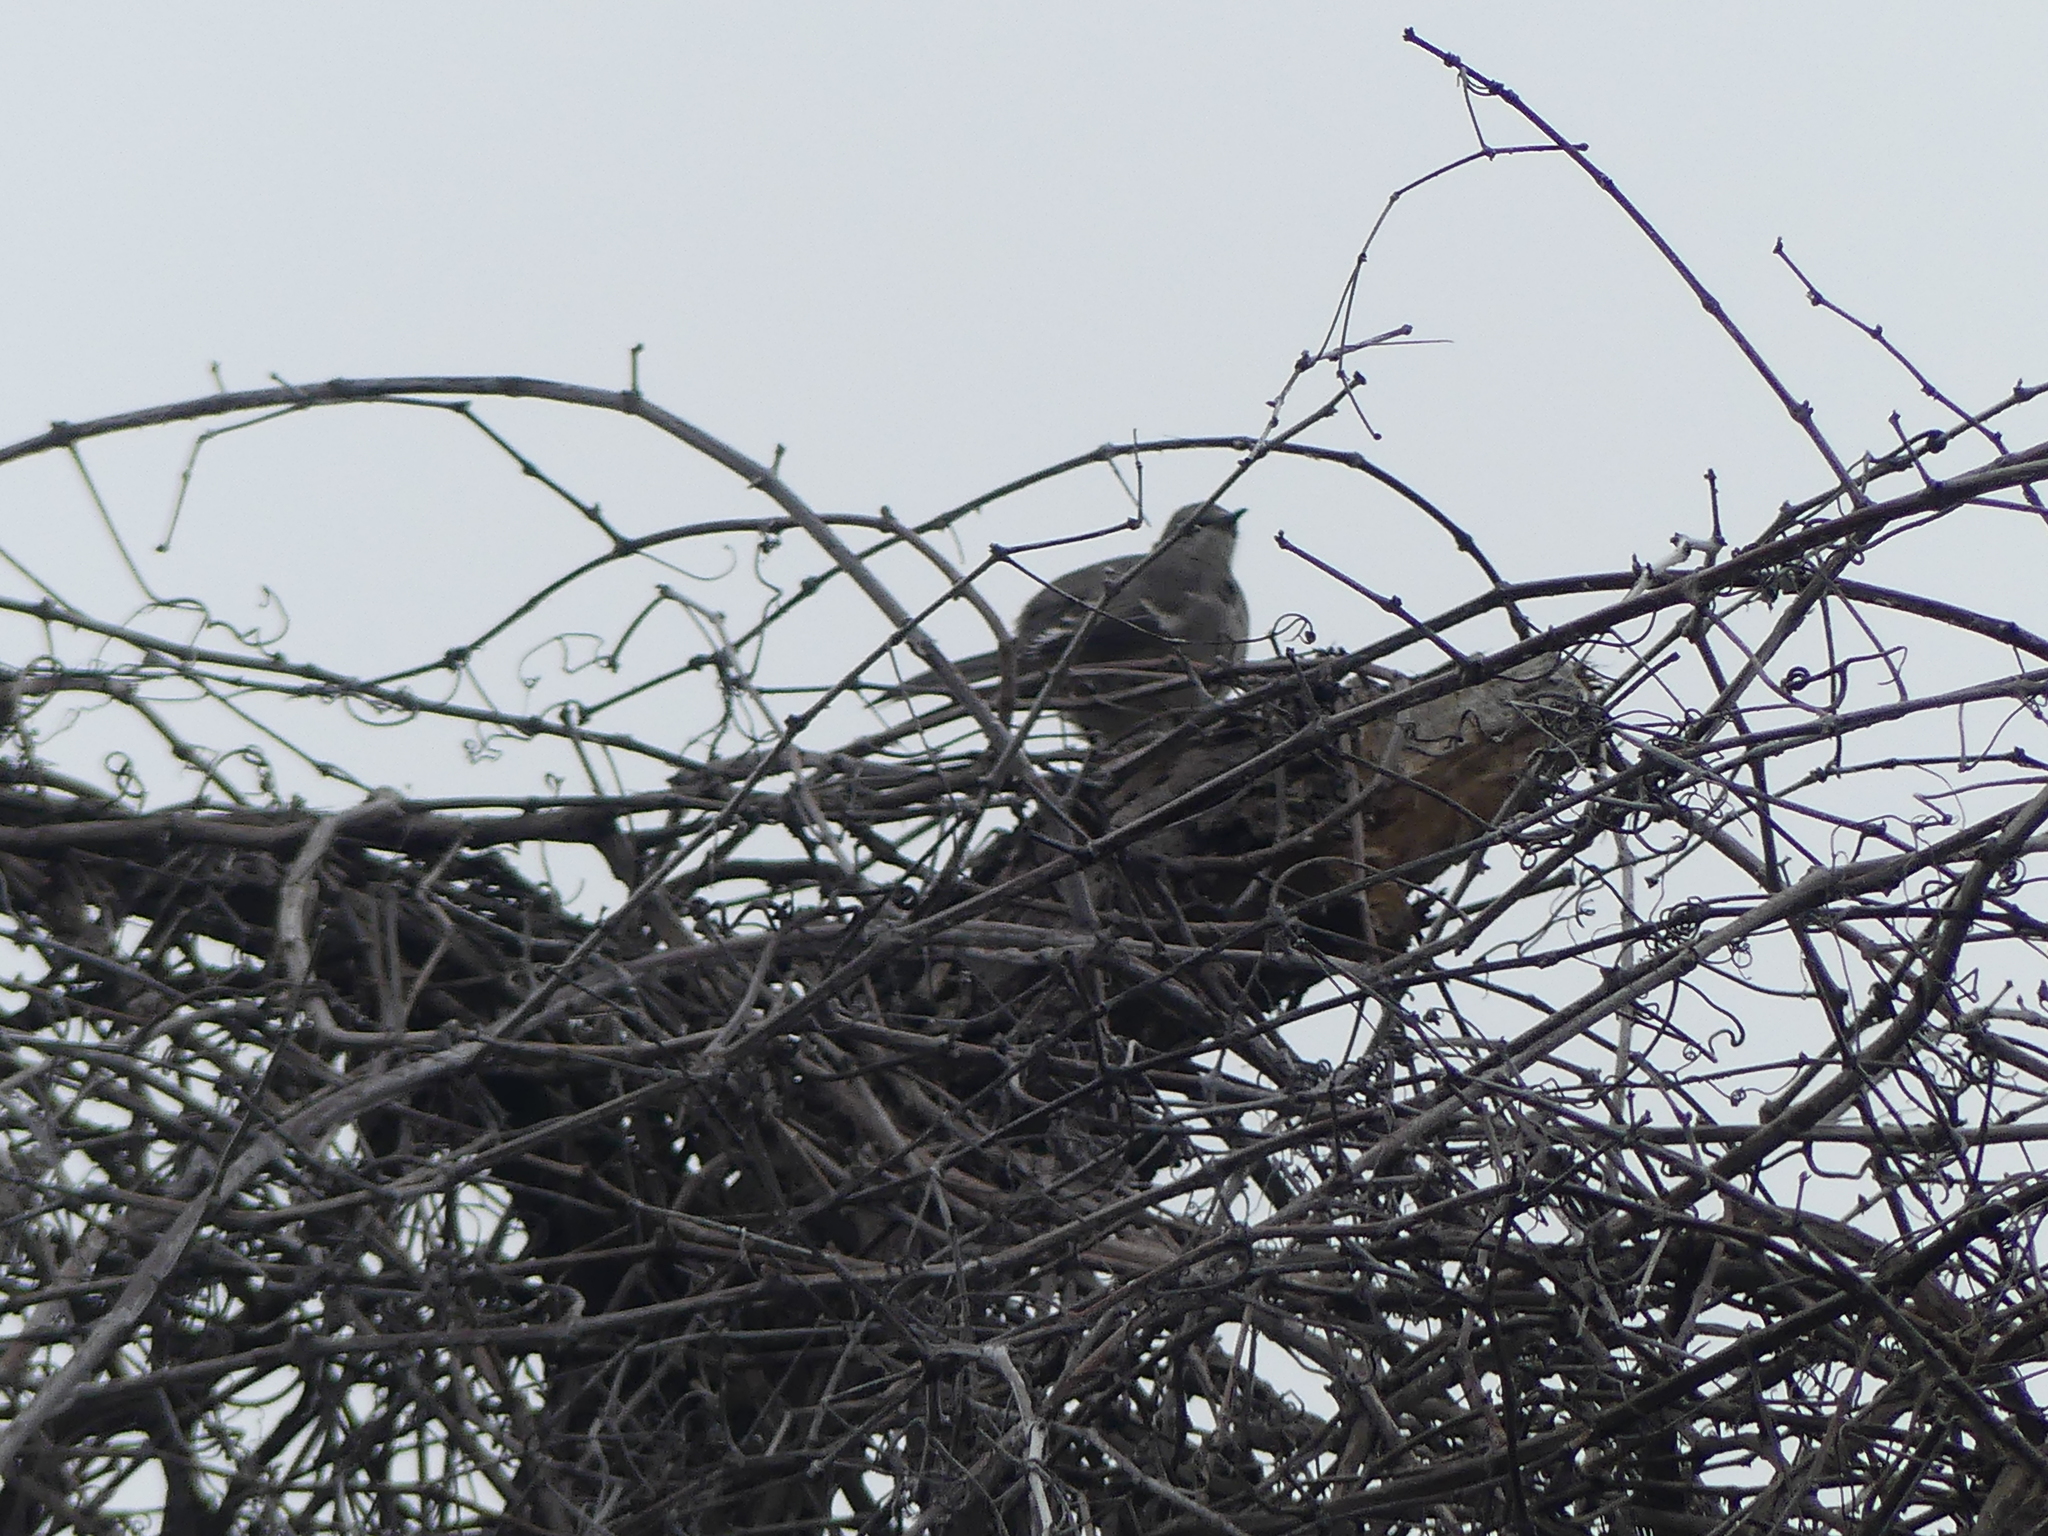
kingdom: Animalia
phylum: Chordata
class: Aves
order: Passeriformes
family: Mimidae
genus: Mimus
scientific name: Mimus polyglottos
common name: Northern mockingbird
